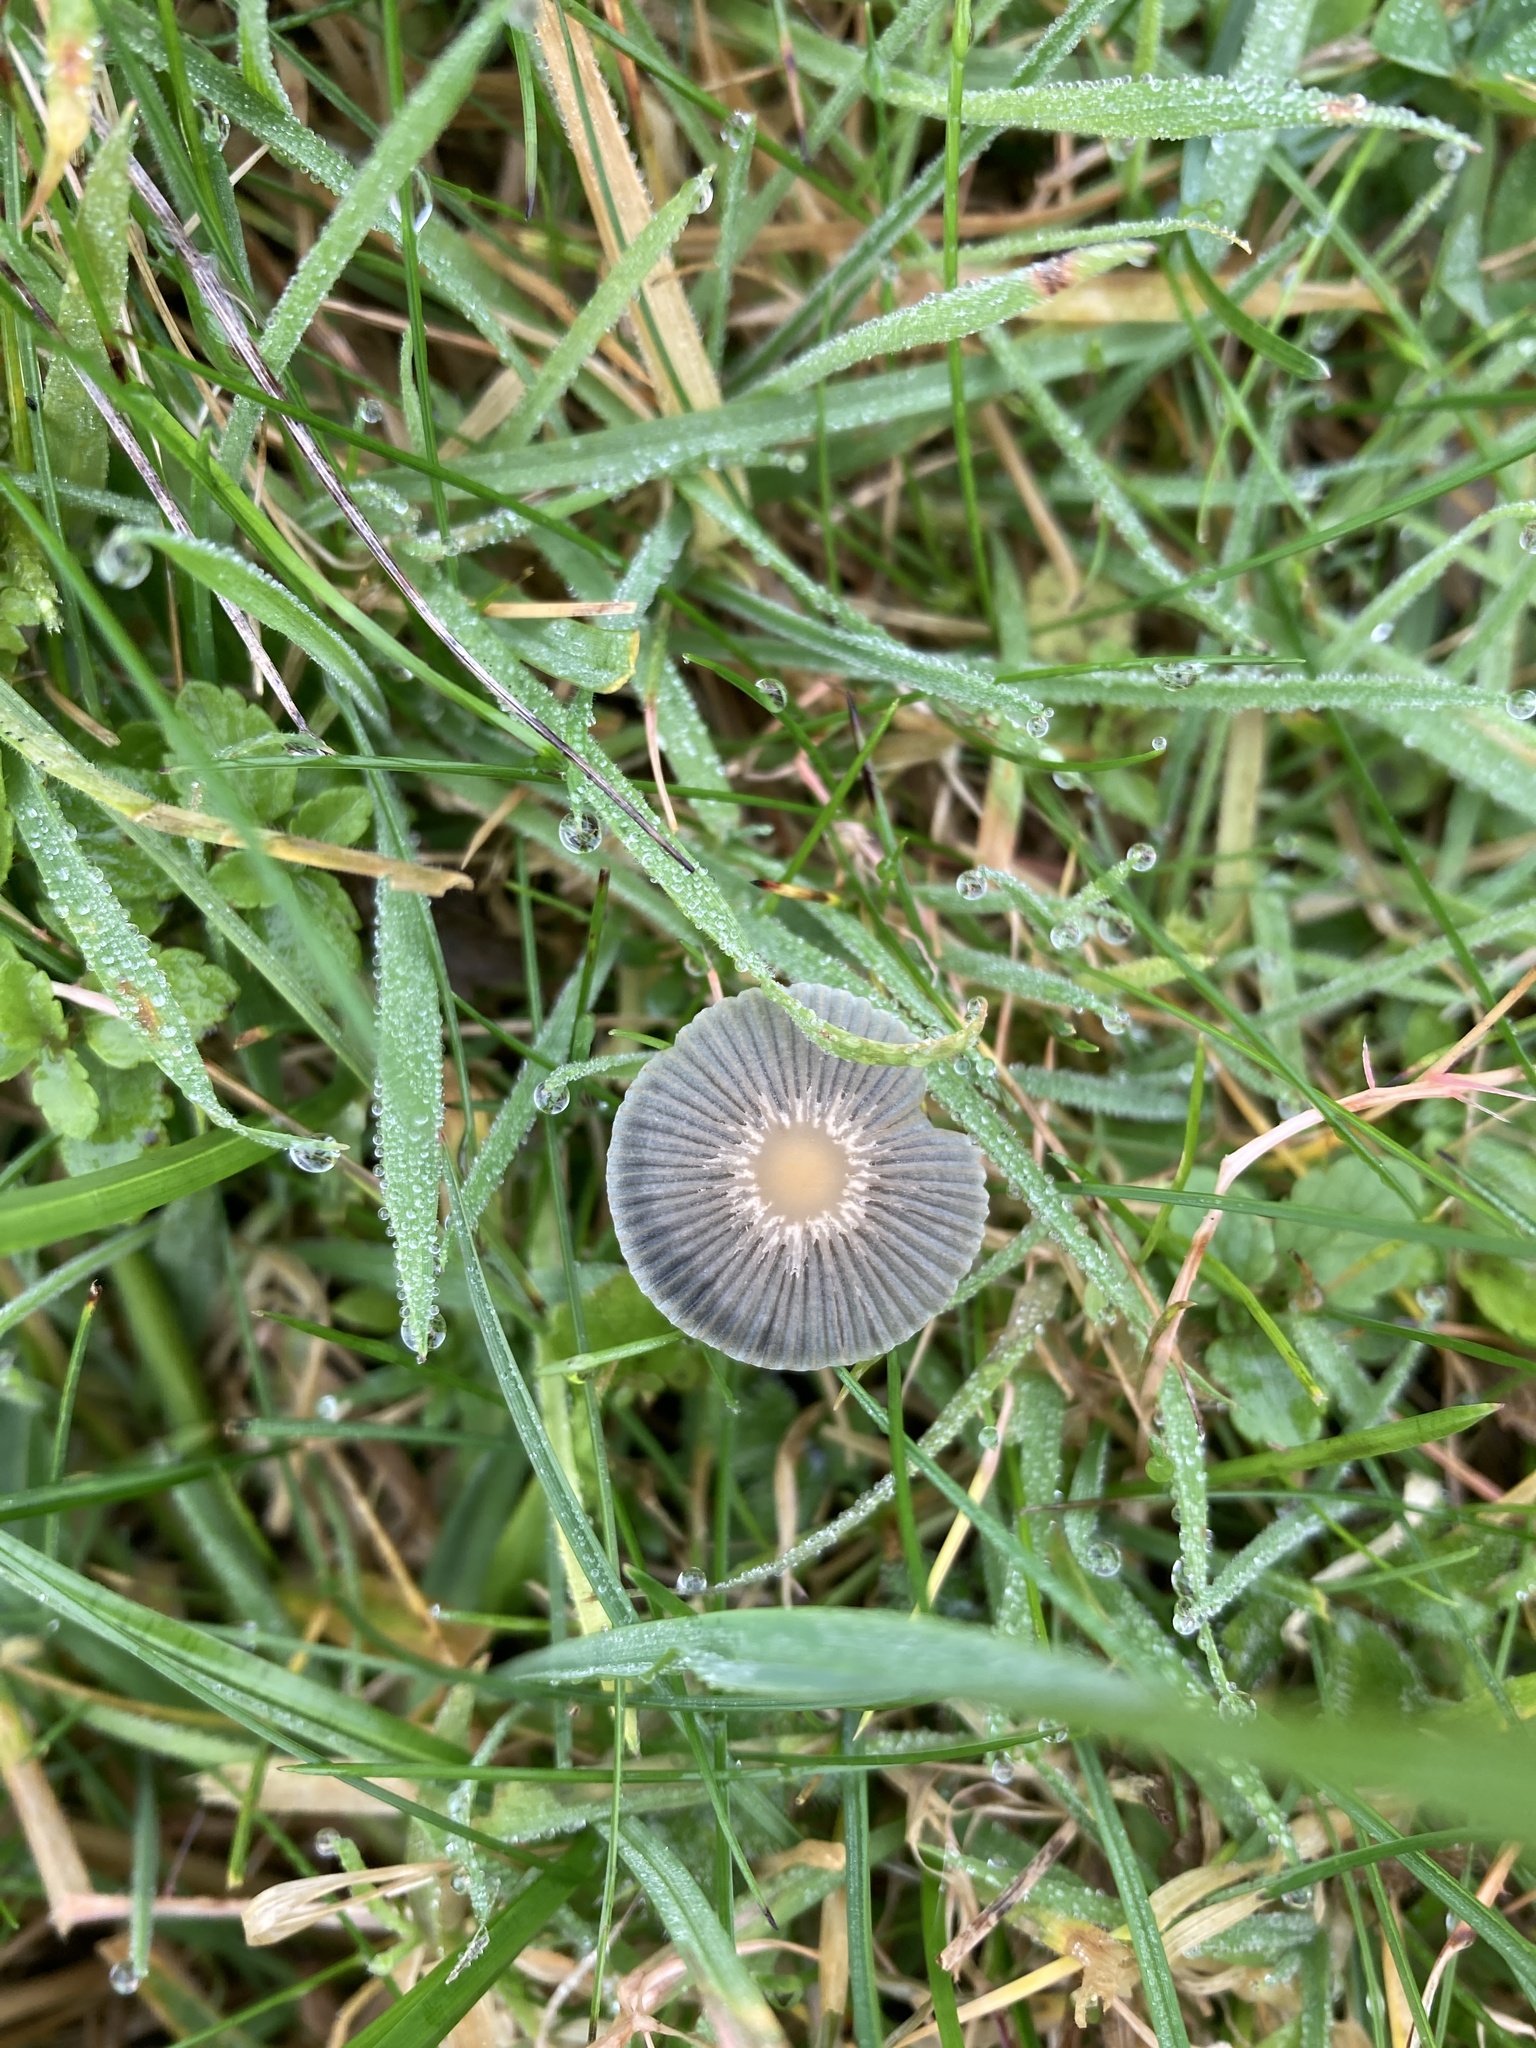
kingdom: Fungi
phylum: Basidiomycota
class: Agaricomycetes
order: Agaricales
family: Psathyrellaceae
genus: Parasola
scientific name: Parasola plicatilis
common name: Pleated inkcap
